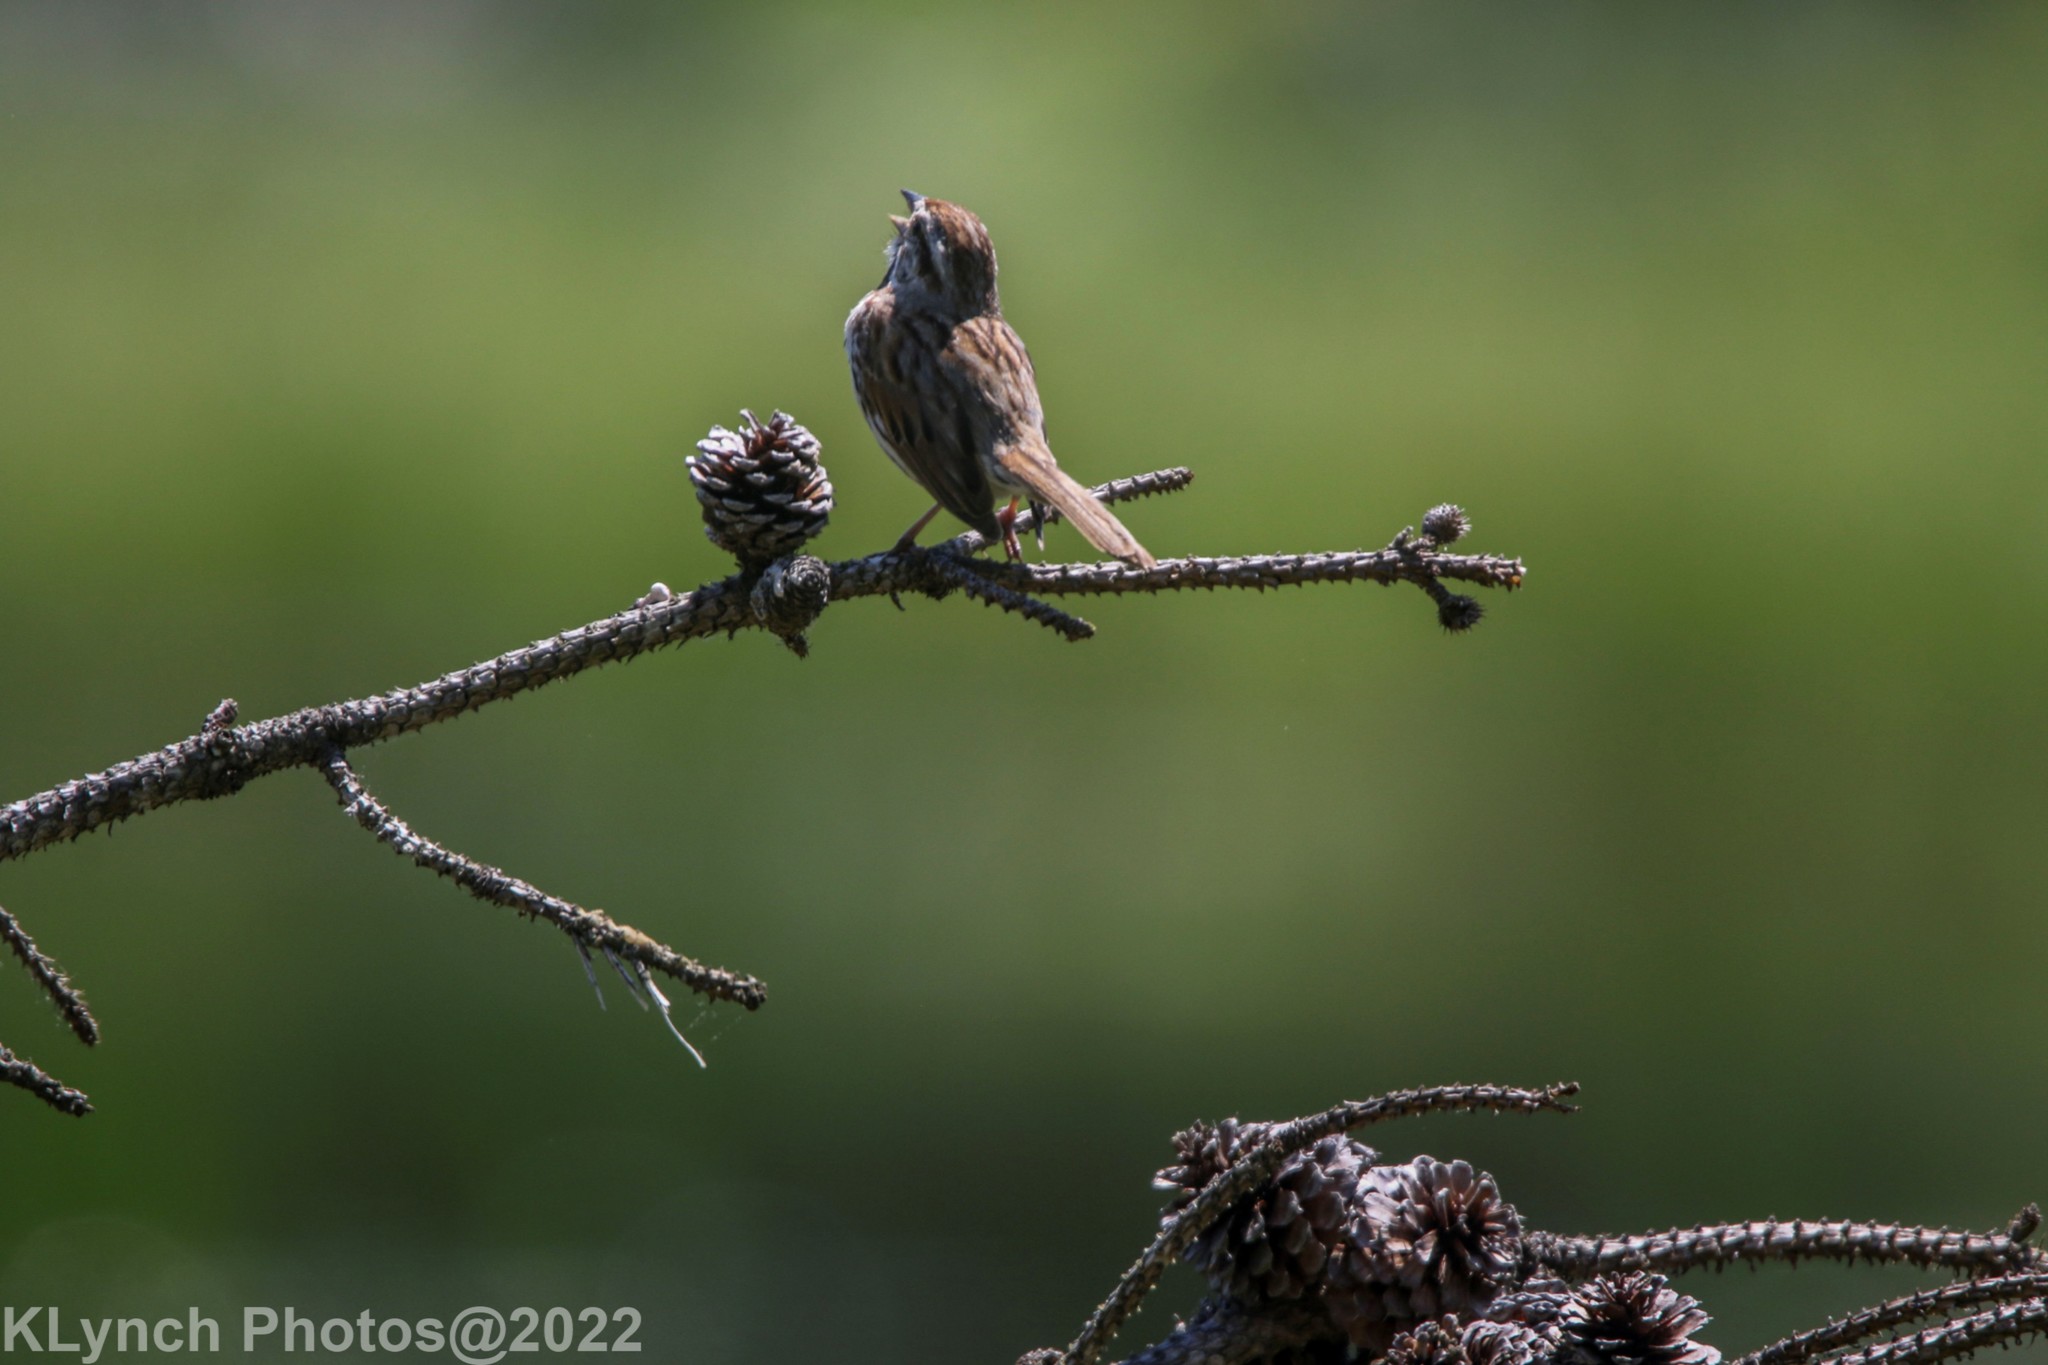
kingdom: Animalia
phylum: Chordata
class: Aves
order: Passeriformes
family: Passerellidae
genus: Melospiza
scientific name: Melospiza melodia
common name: Song sparrow
